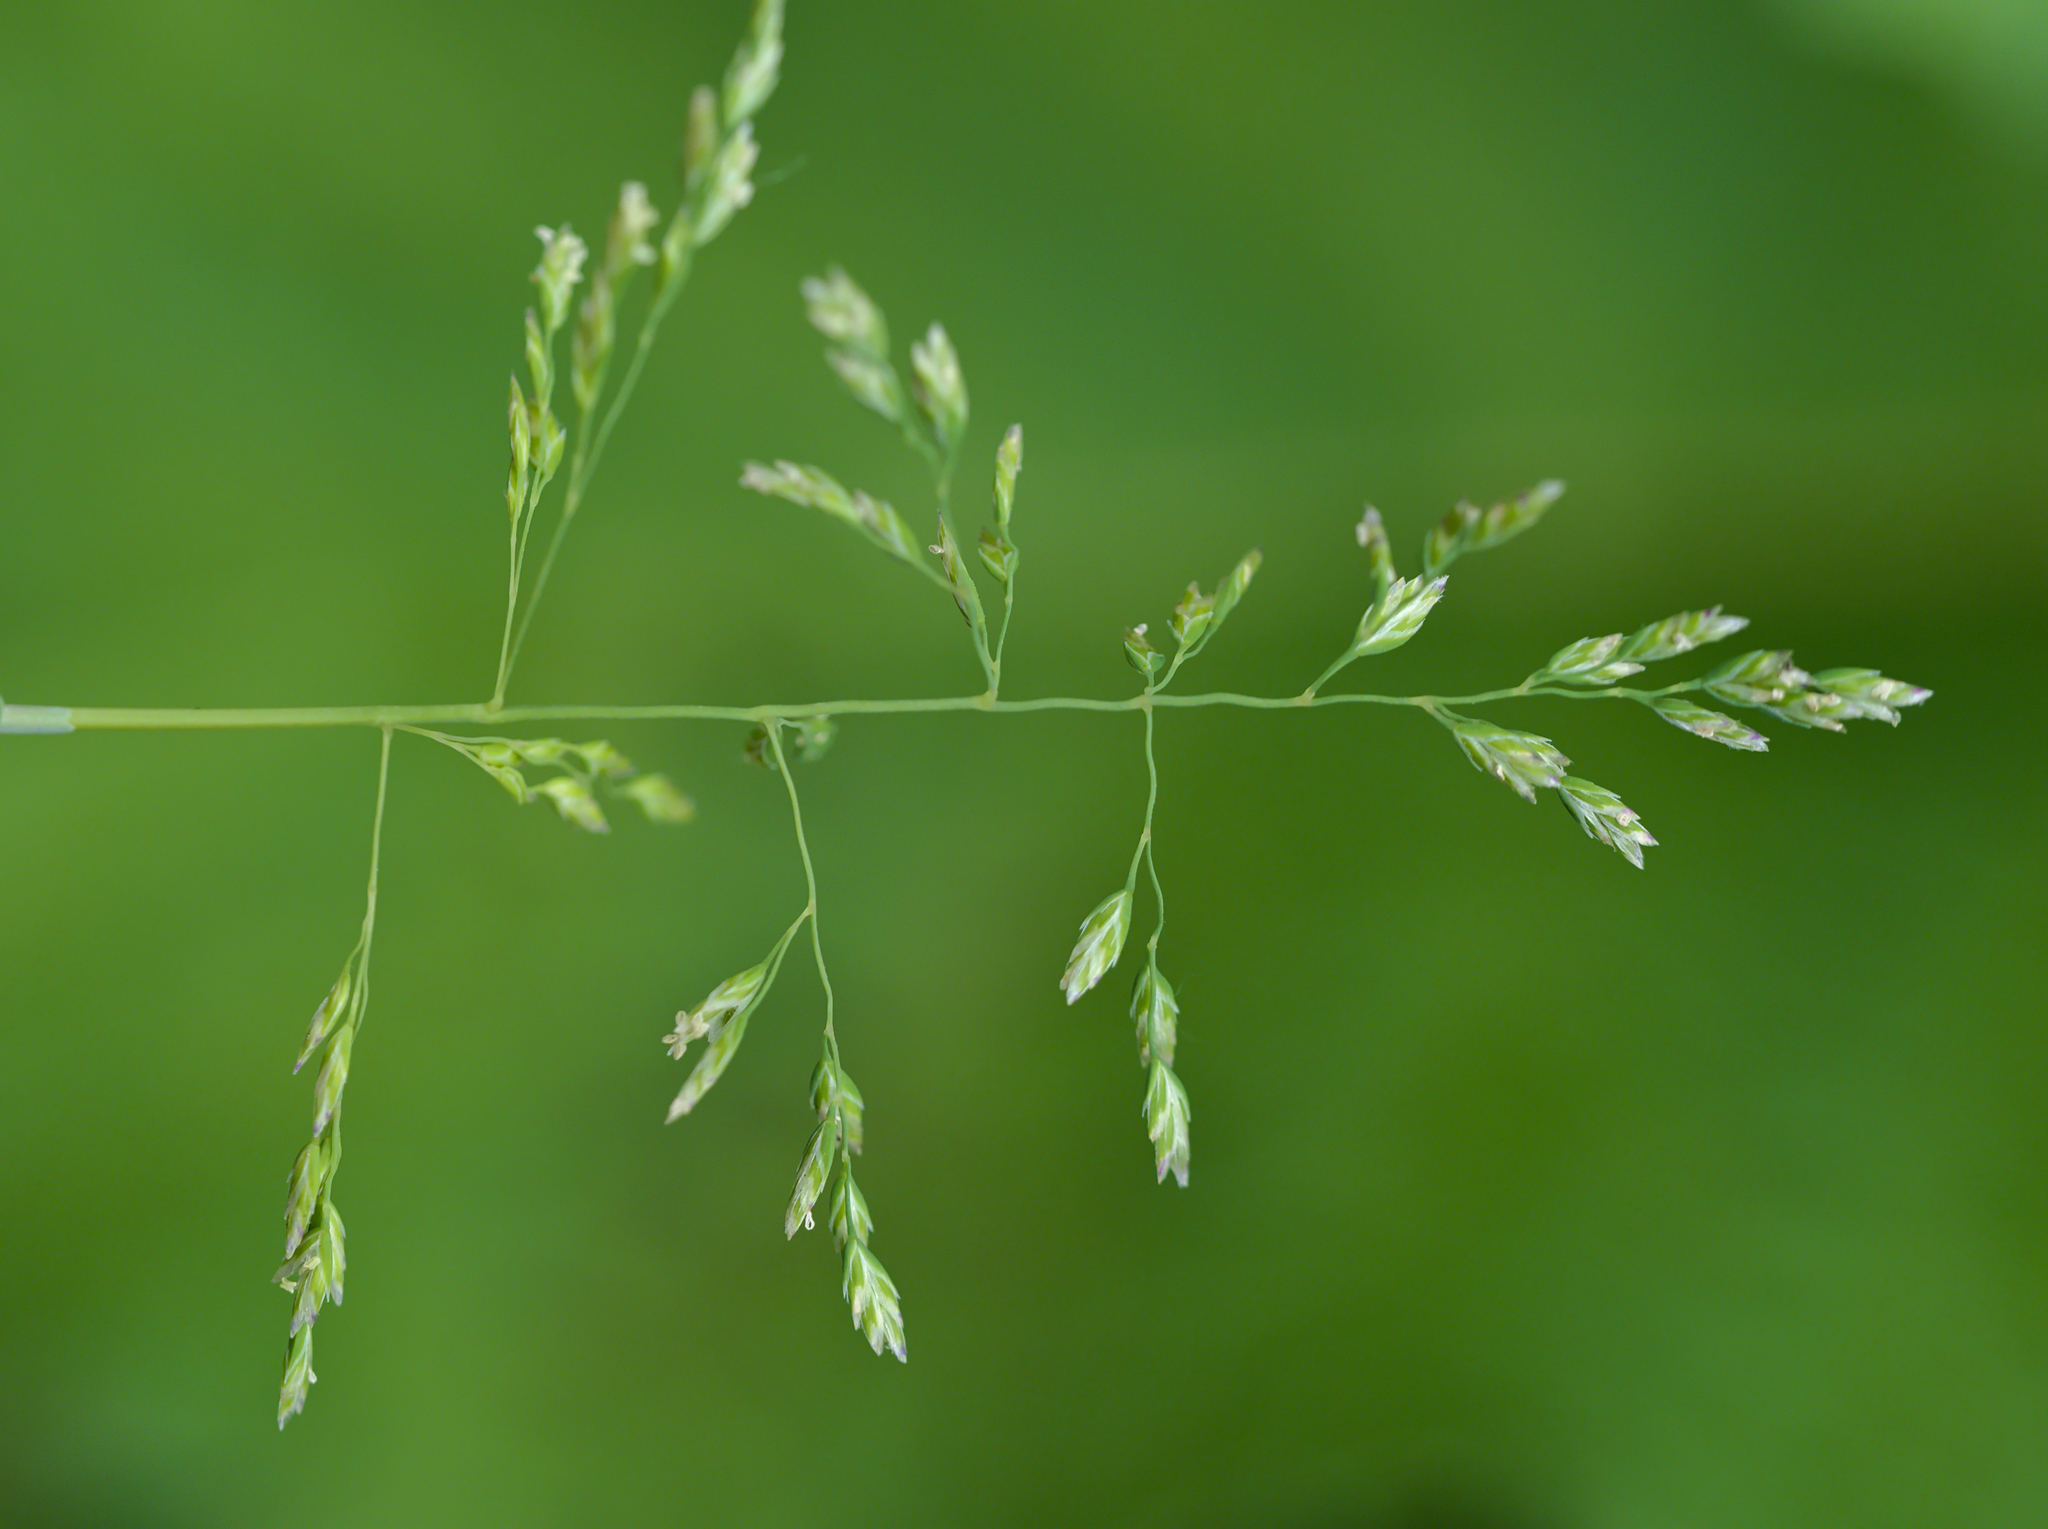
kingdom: Plantae
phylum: Tracheophyta
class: Liliopsida
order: Poales
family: Poaceae
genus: Poa
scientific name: Poa annua
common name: Annual bluegrass
